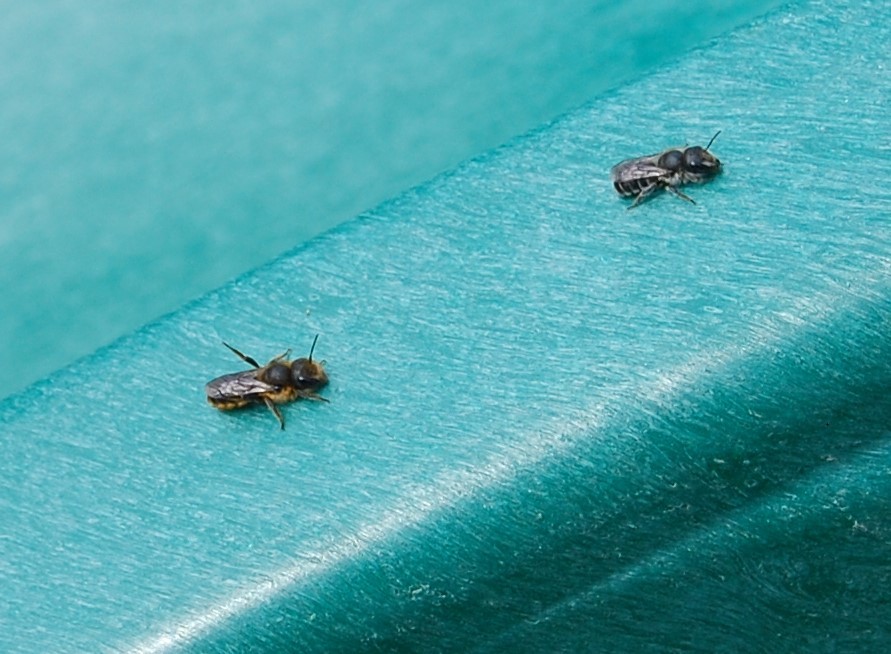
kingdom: Animalia
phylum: Arthropoda
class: Insecta
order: Hymenoptera
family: Megachilidae
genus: Osmia
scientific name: Osmia caerulescens
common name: Blue mason bee
